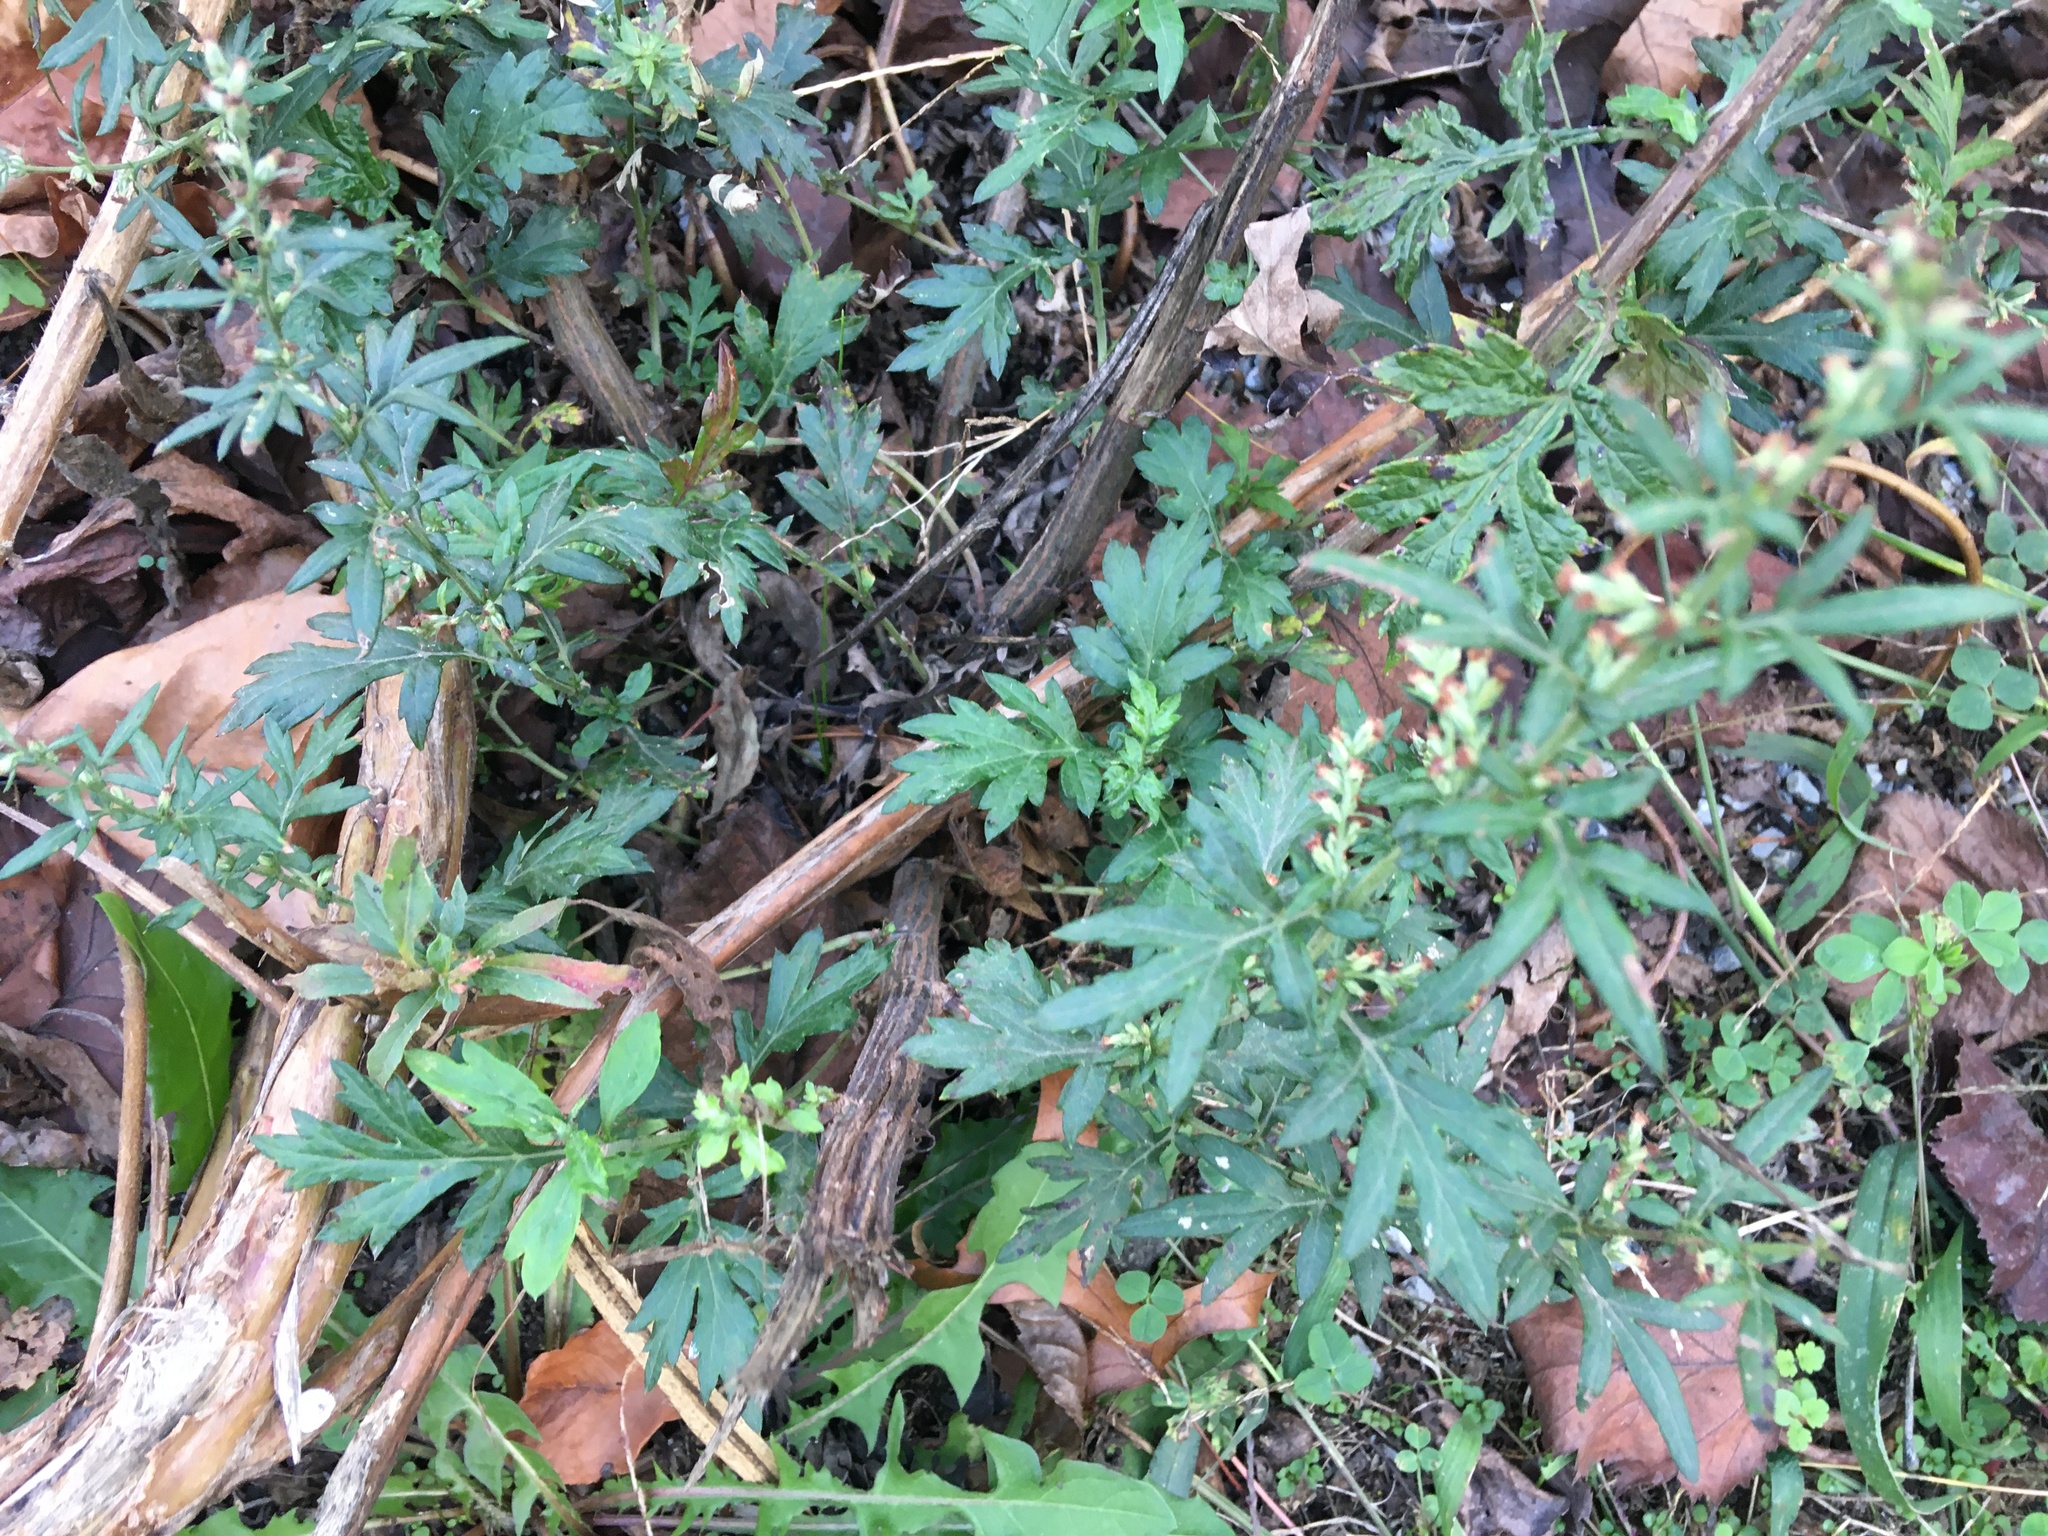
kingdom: Plantae
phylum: Tracheophyta
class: Magnoliopsida
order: Asterales
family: Asteraceae
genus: Artemisia
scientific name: Artemisia vulgaris
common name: Mugwort
